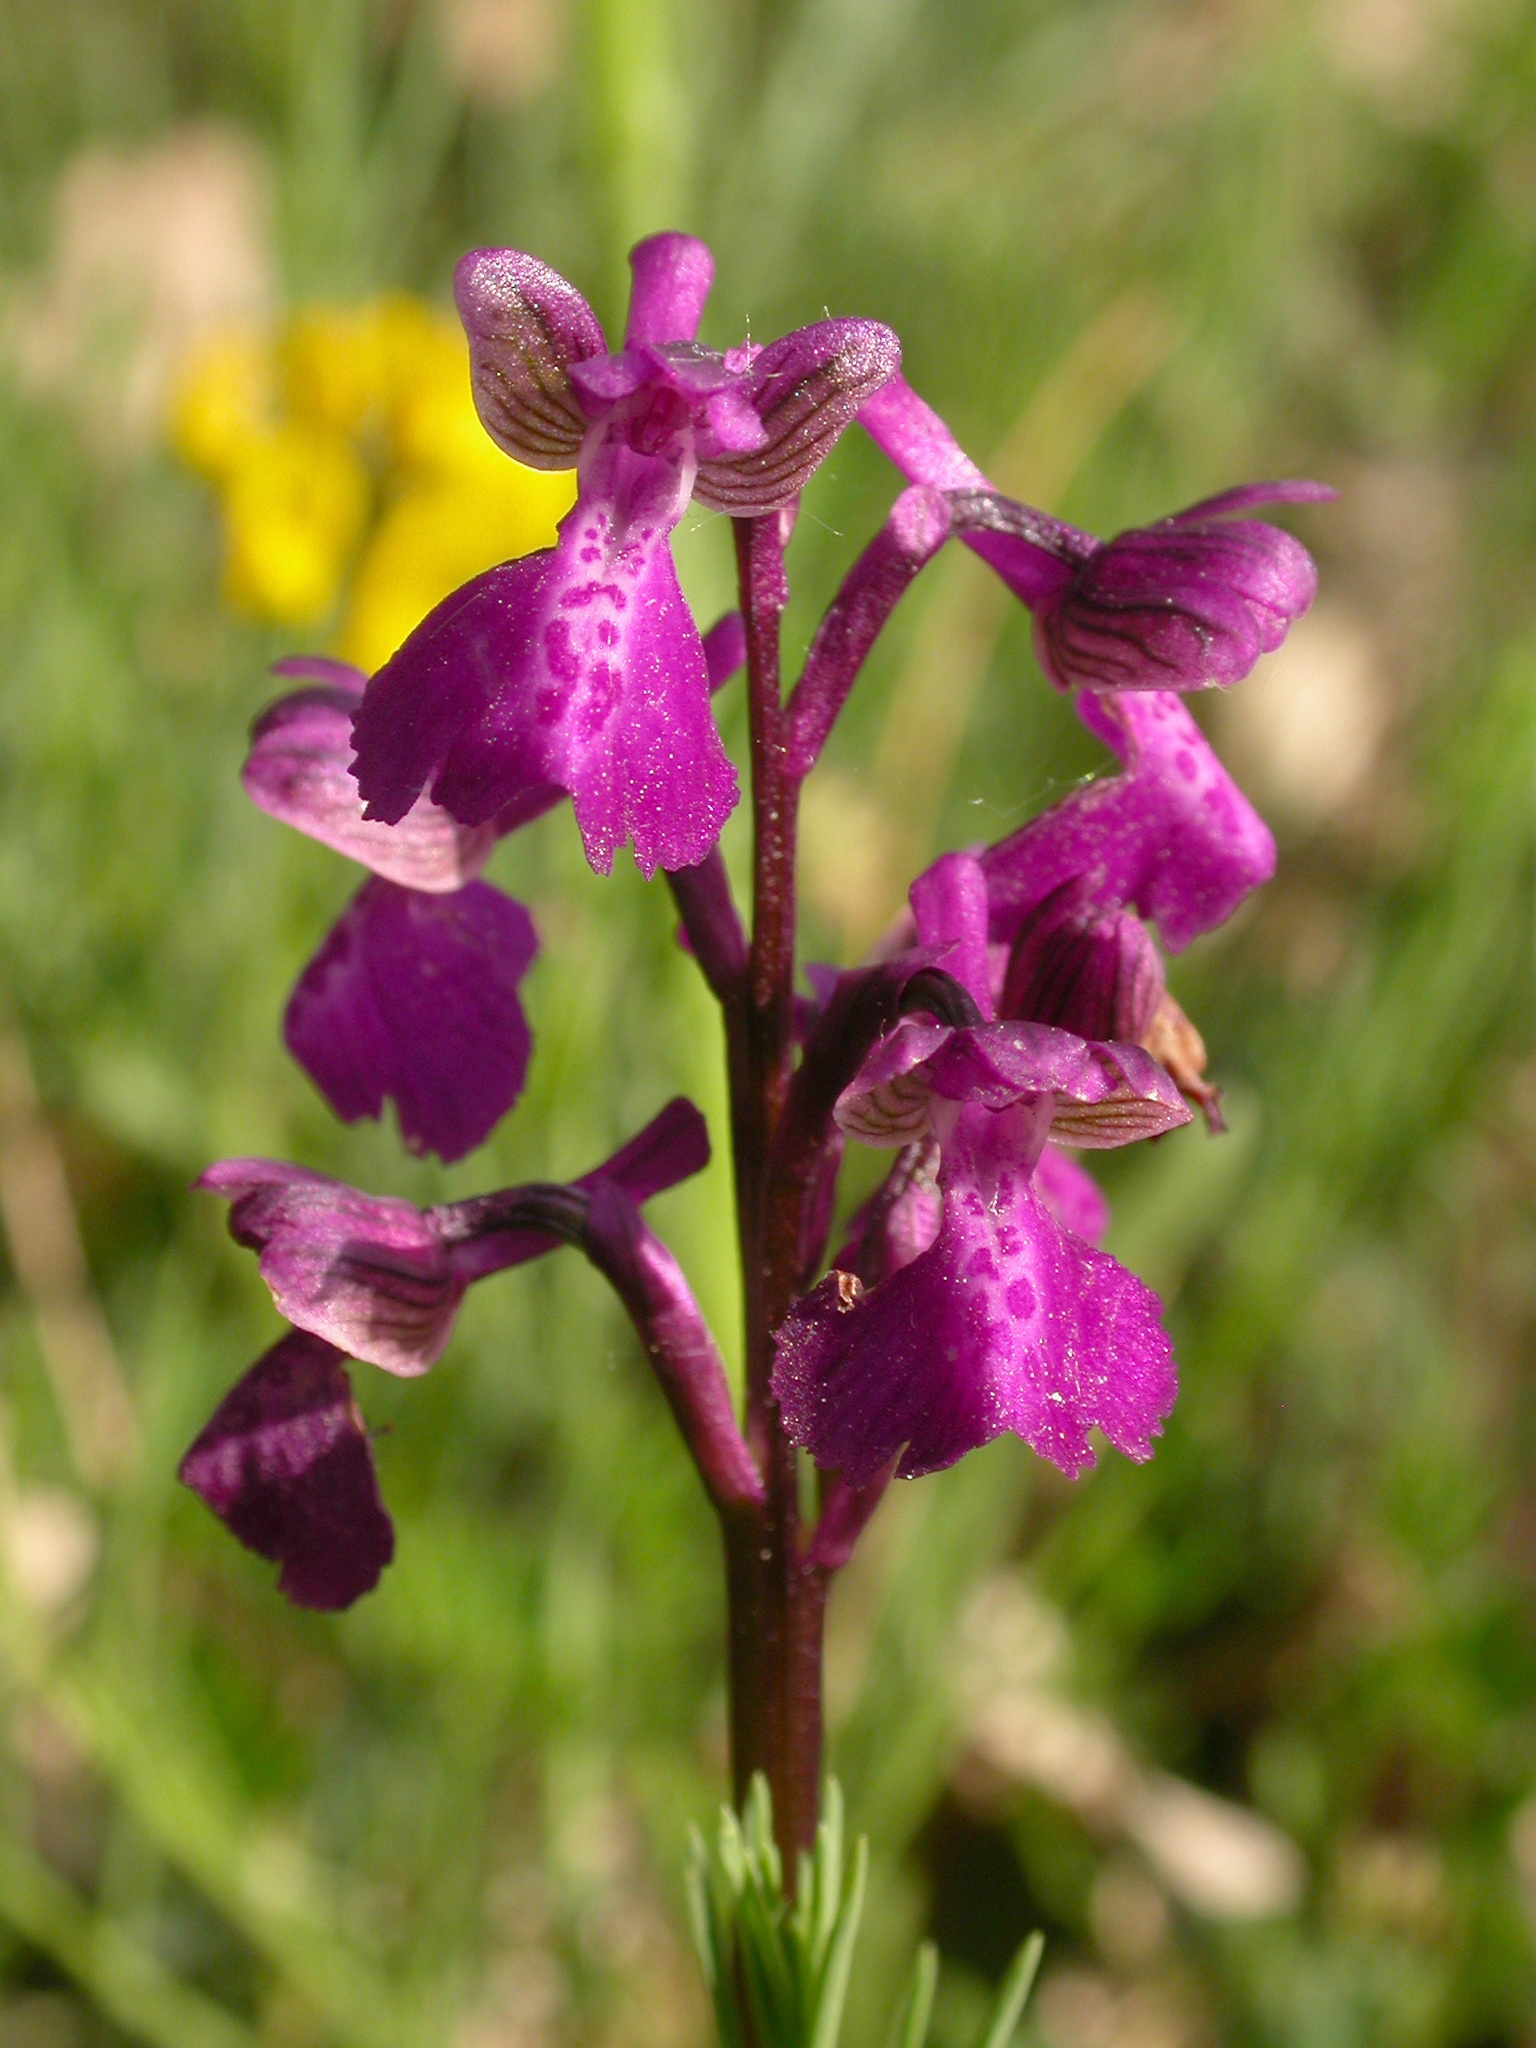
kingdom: Plantae
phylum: Tracheophyta
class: Liliopsida
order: Asparagales
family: Orchidaceae
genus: Anacamptis
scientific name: Anacamptis morio
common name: Green-winged orchid
